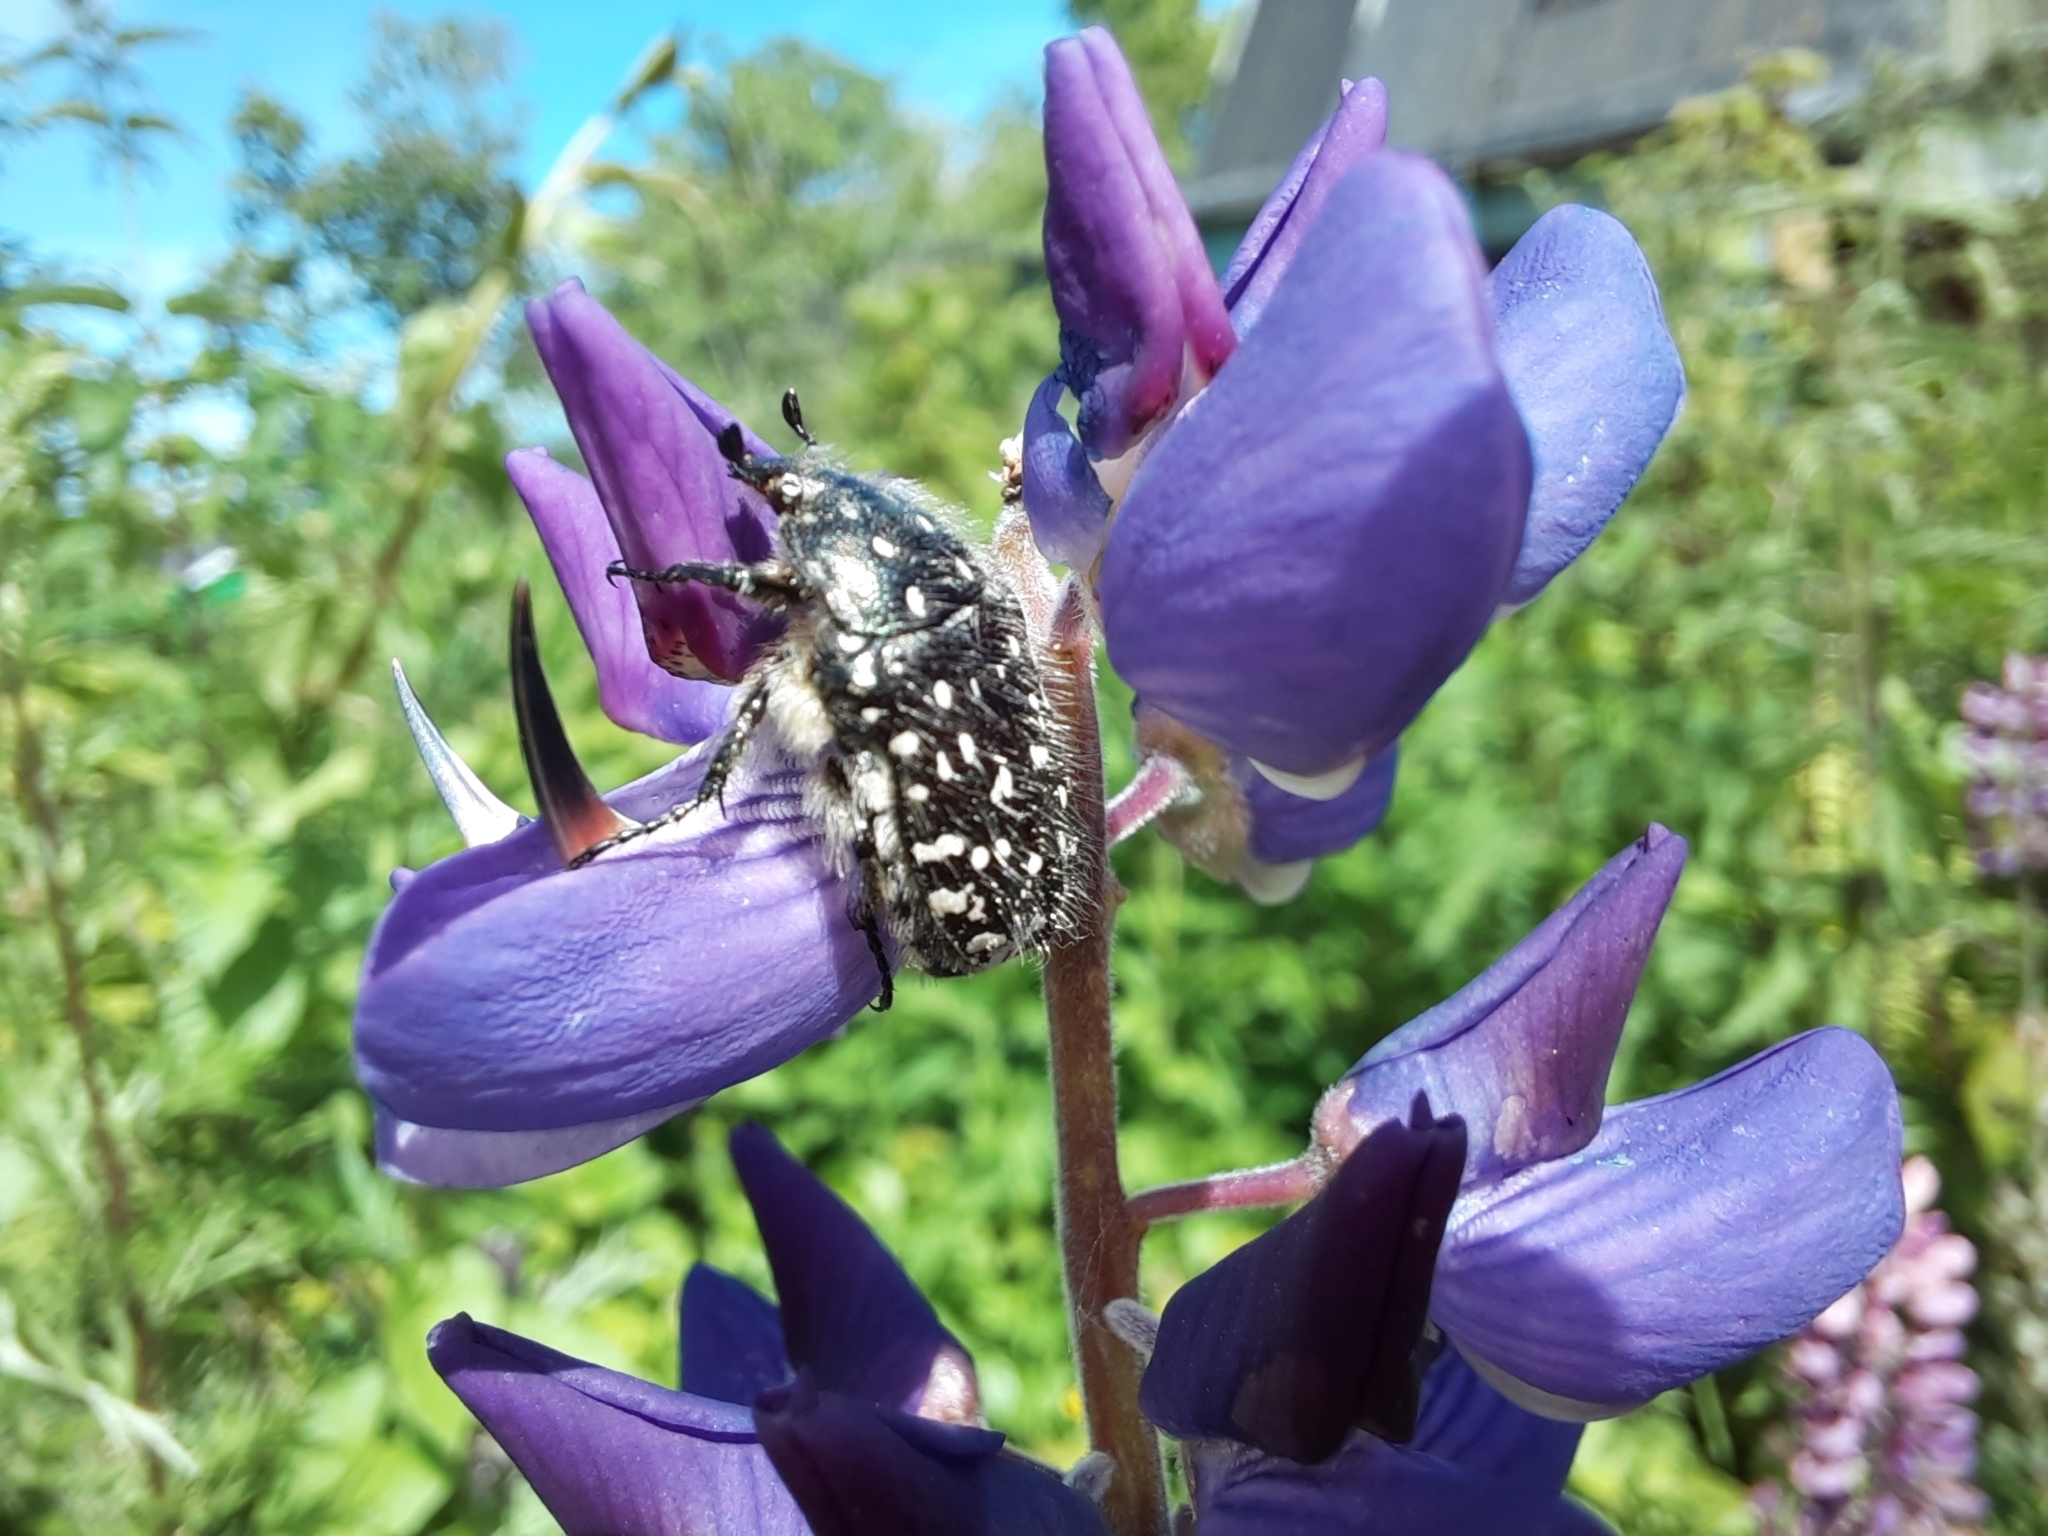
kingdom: Animalia
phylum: Arthropoda
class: Insecta
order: Coleoptera
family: Scarabaeidae
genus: Oxythyrea
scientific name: Oxythyrea funesta
